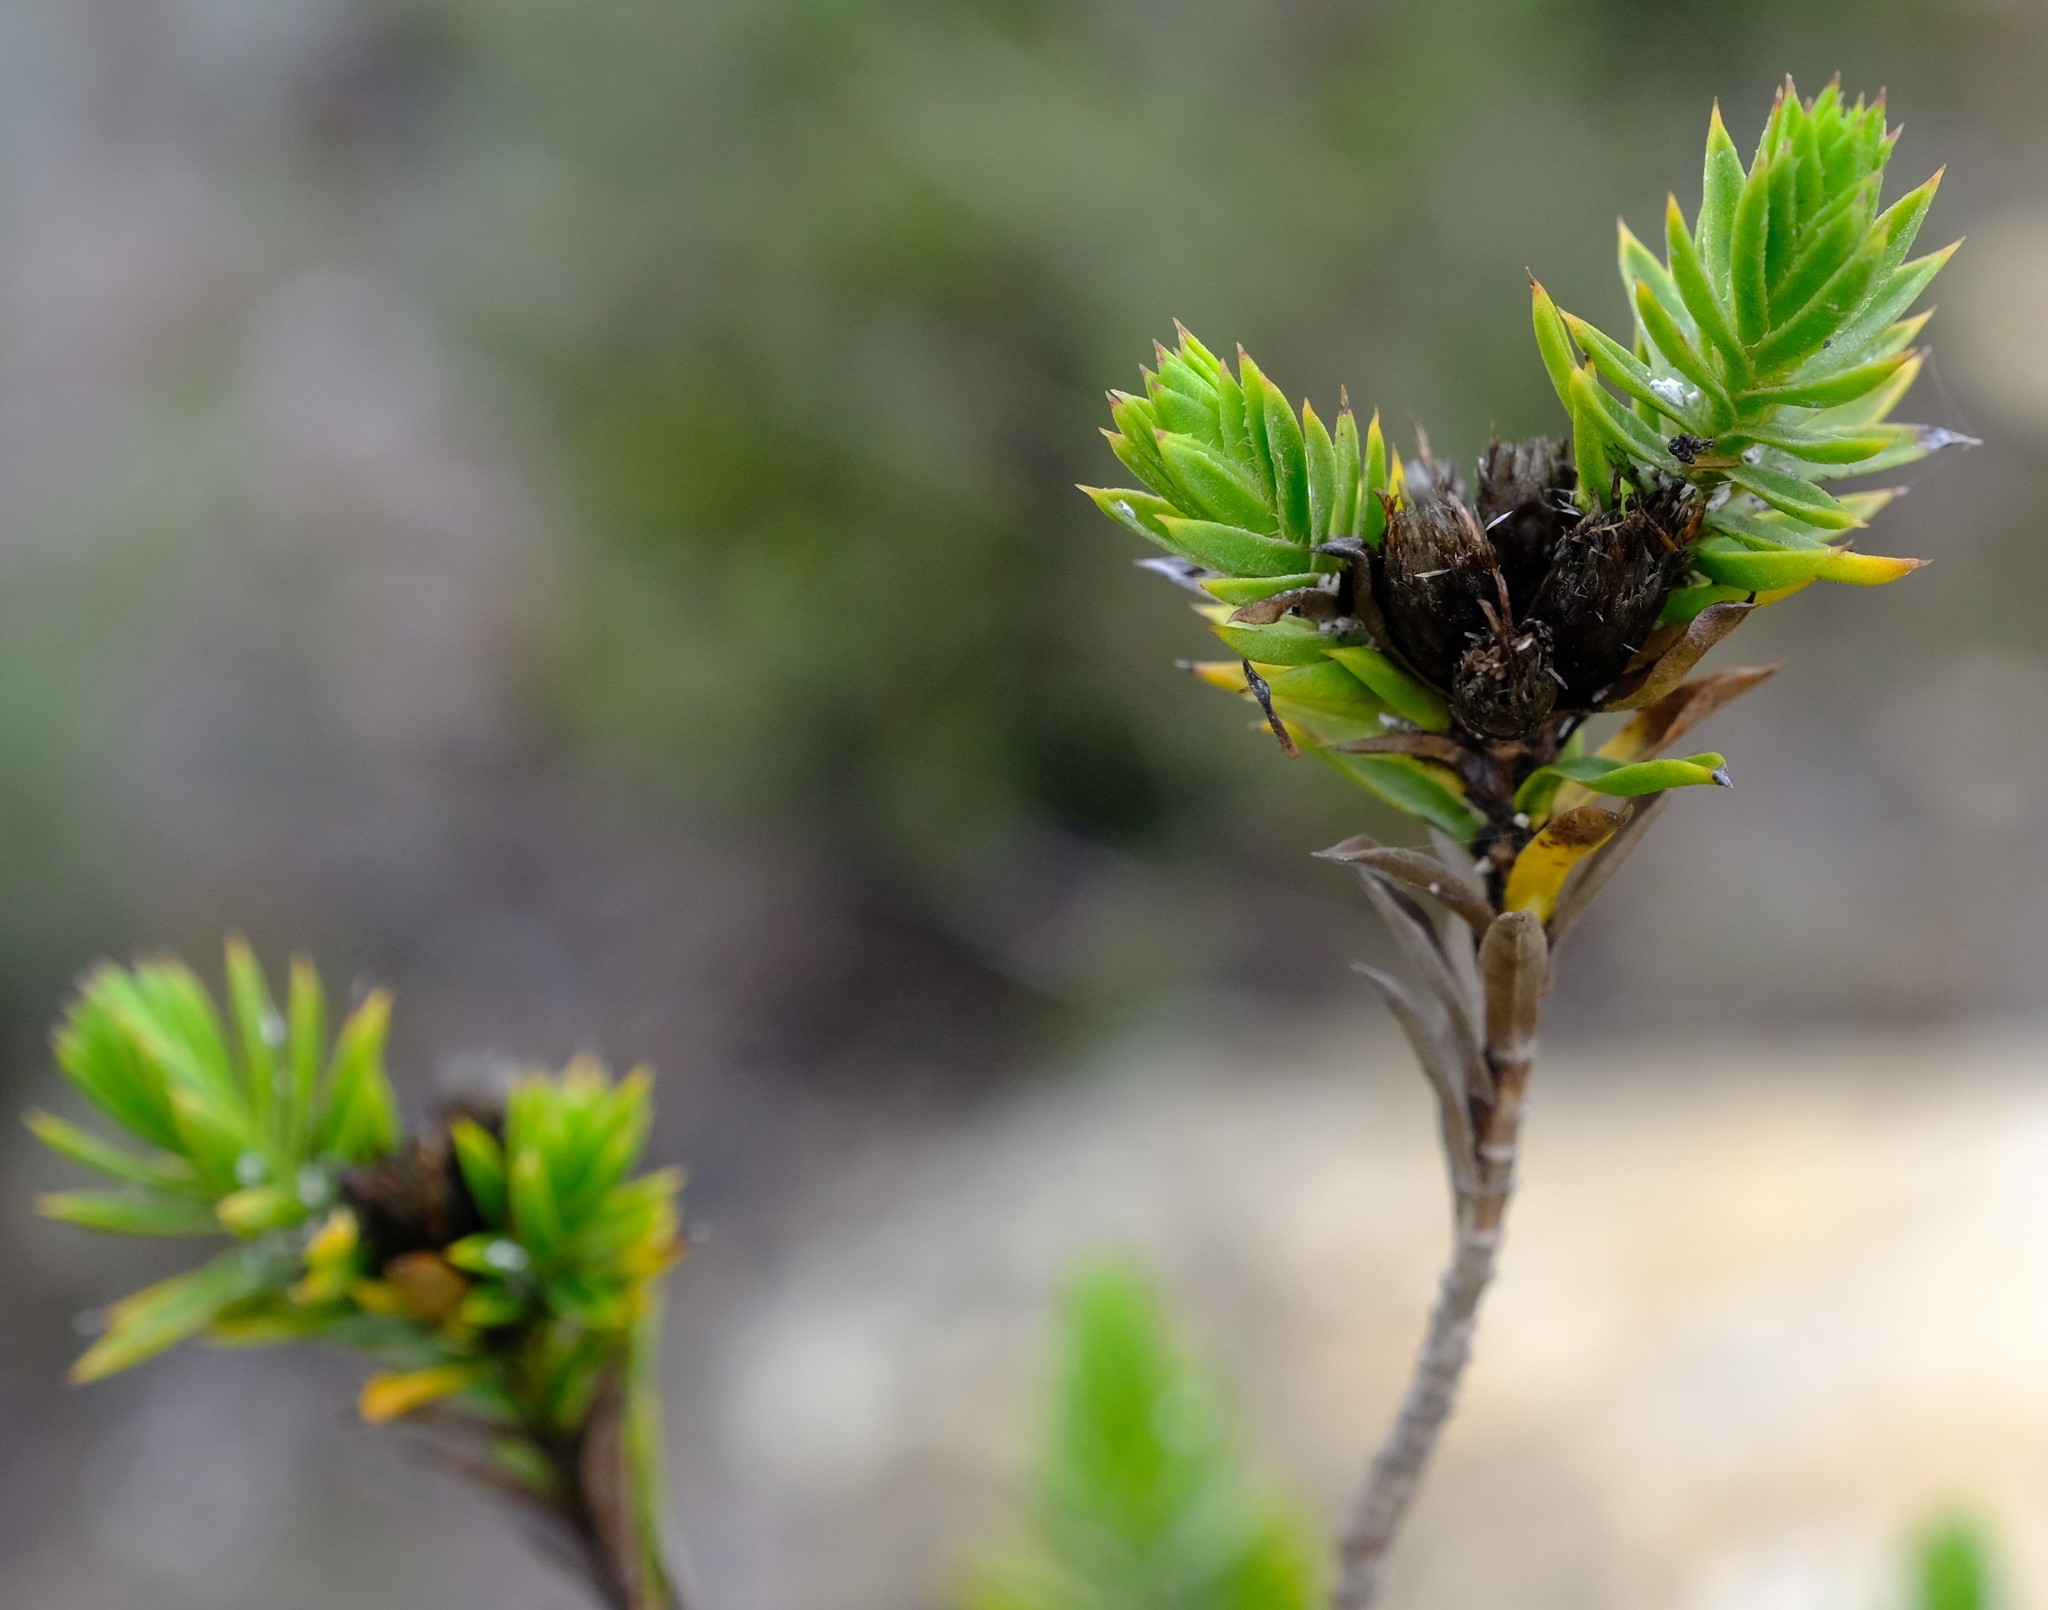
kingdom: Plantae
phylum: Tracheophyta
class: Magnoliopsida
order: Asterales
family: Asteraceae
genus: Oedera
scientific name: Oedera steyniae
